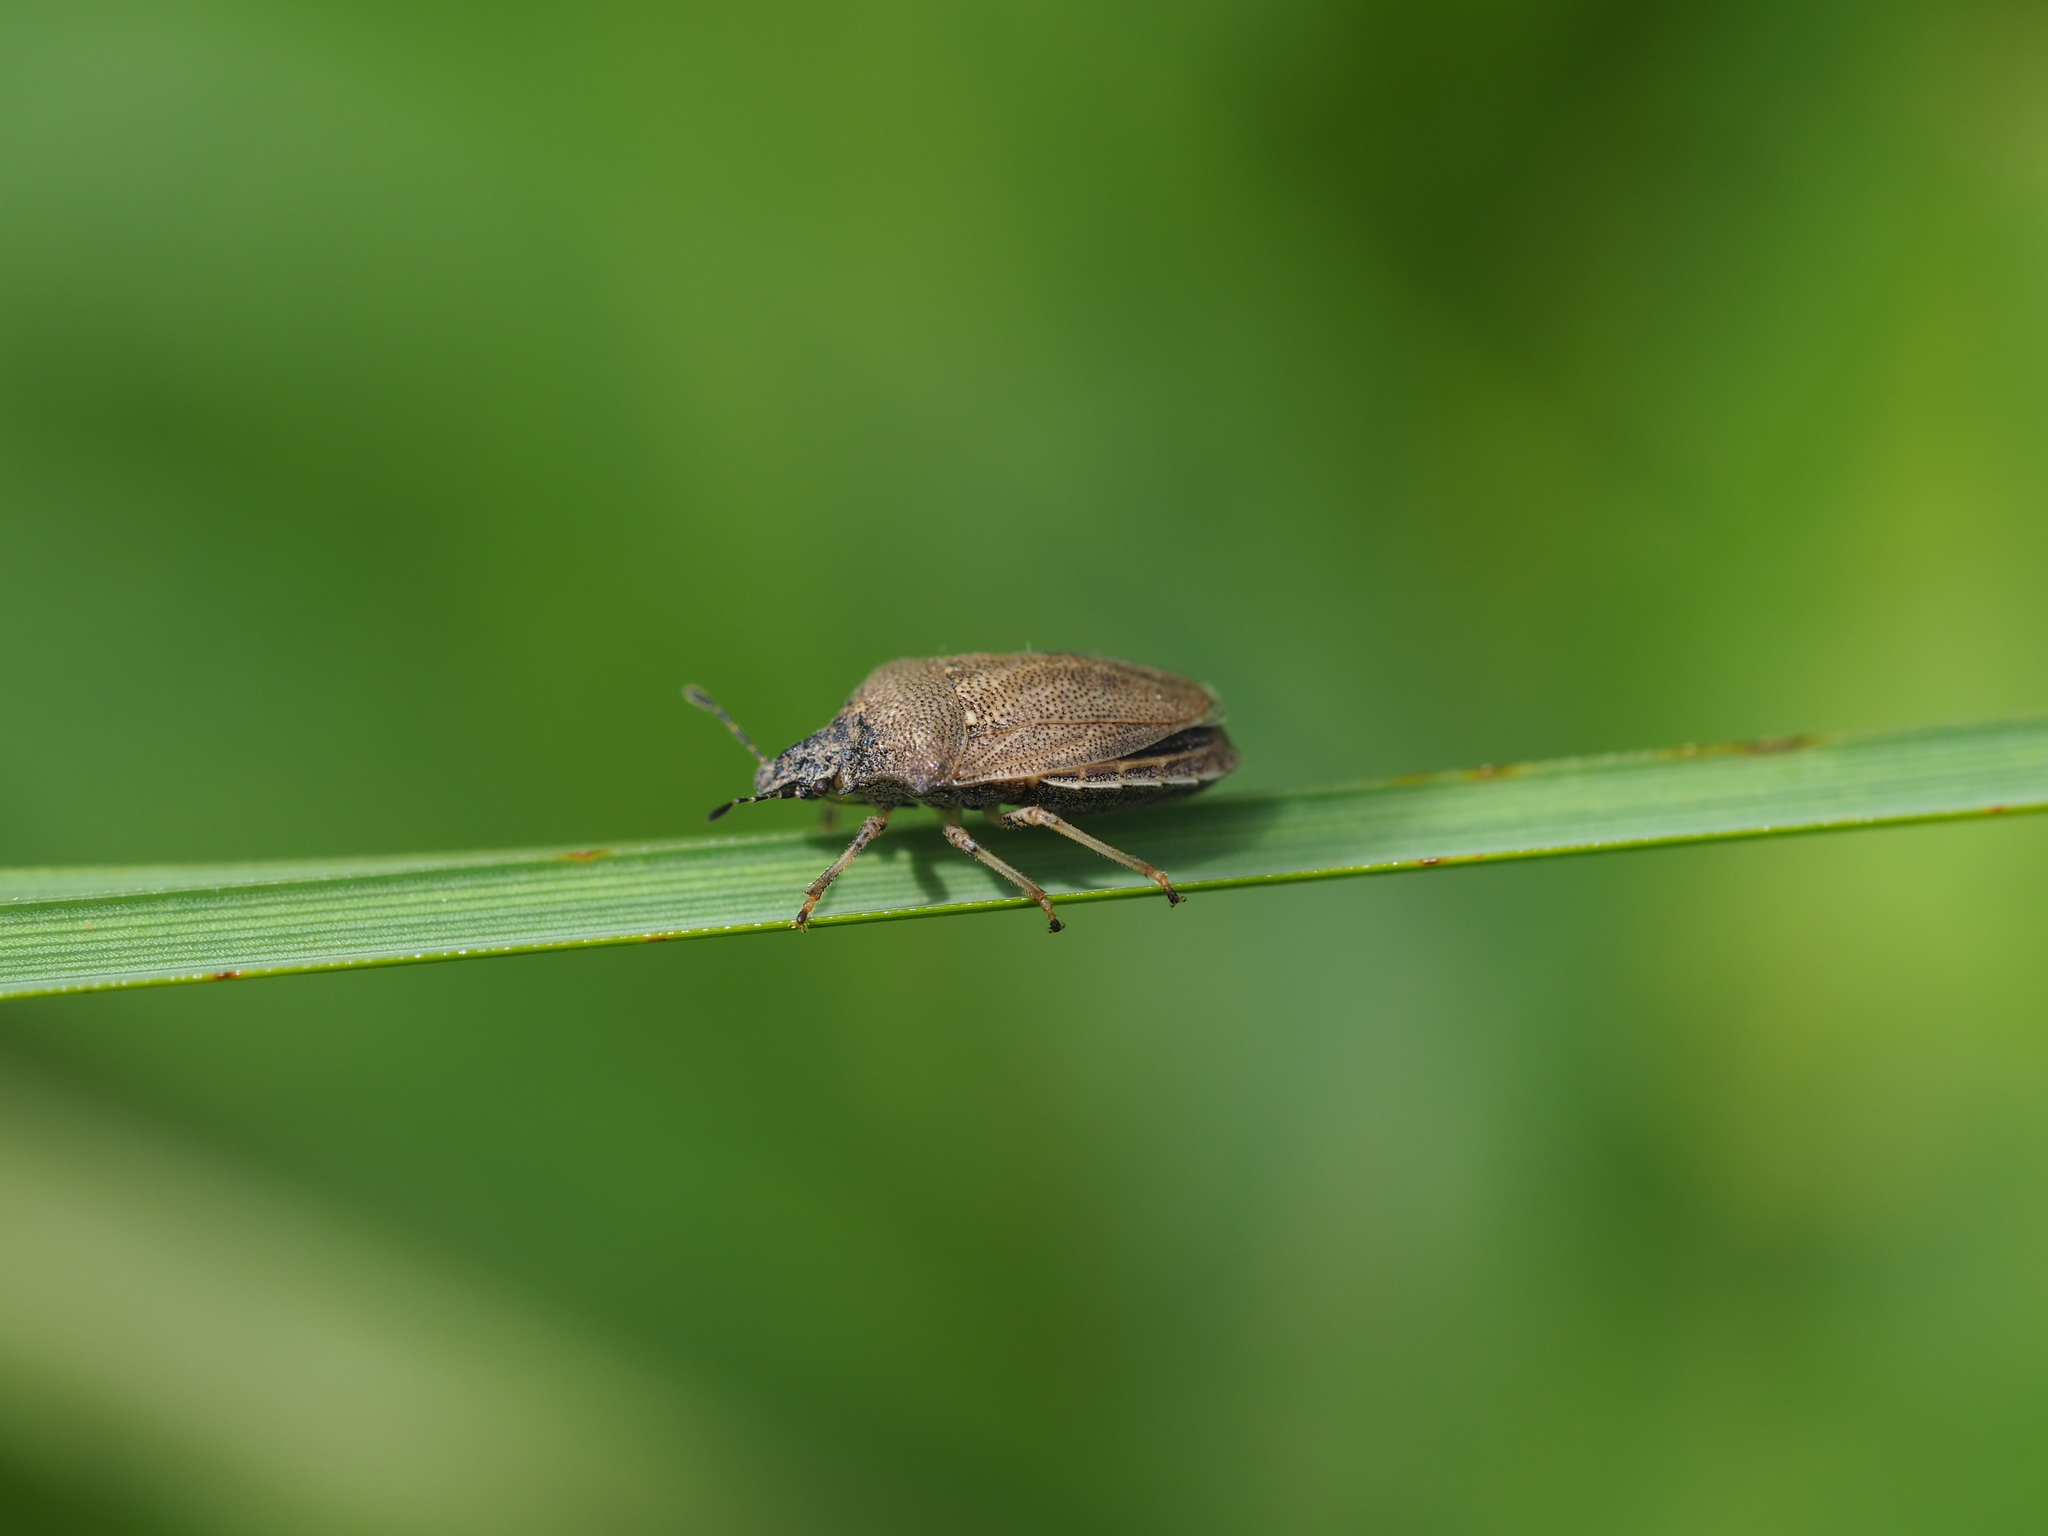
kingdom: Animalia
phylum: Arthropoda
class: Insecta
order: Hemiptera
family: Pentatomidae
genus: Podops
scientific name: Podops curvidens
